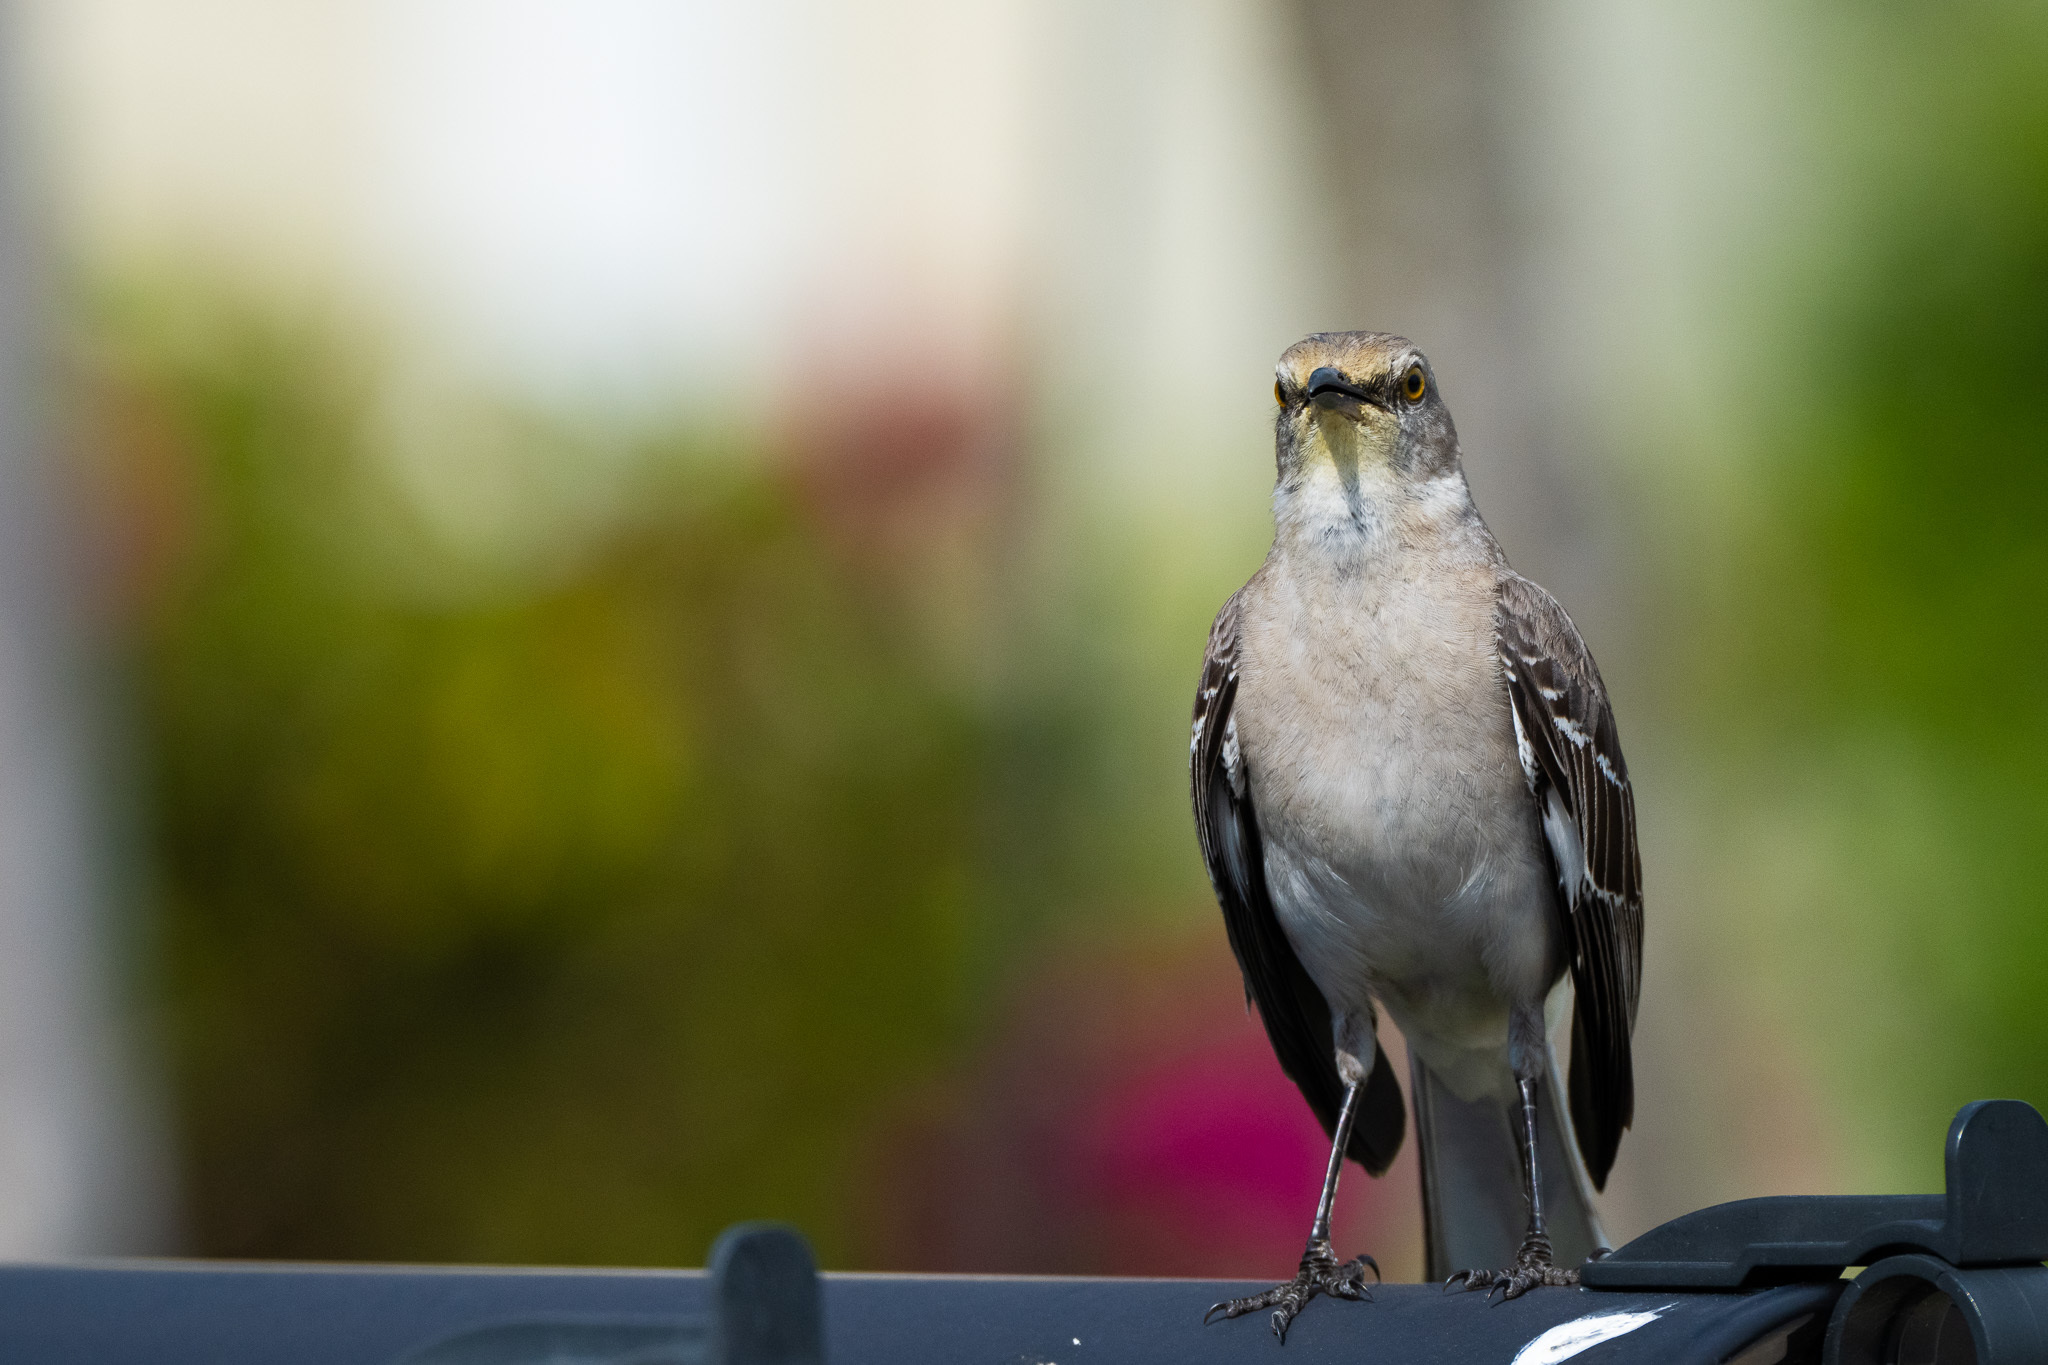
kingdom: Animalia
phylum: Chordata
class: Aves
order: Passeriformes
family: Mimidae
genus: Mimus
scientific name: Mimus polyglottos
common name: Northern mockingbird
